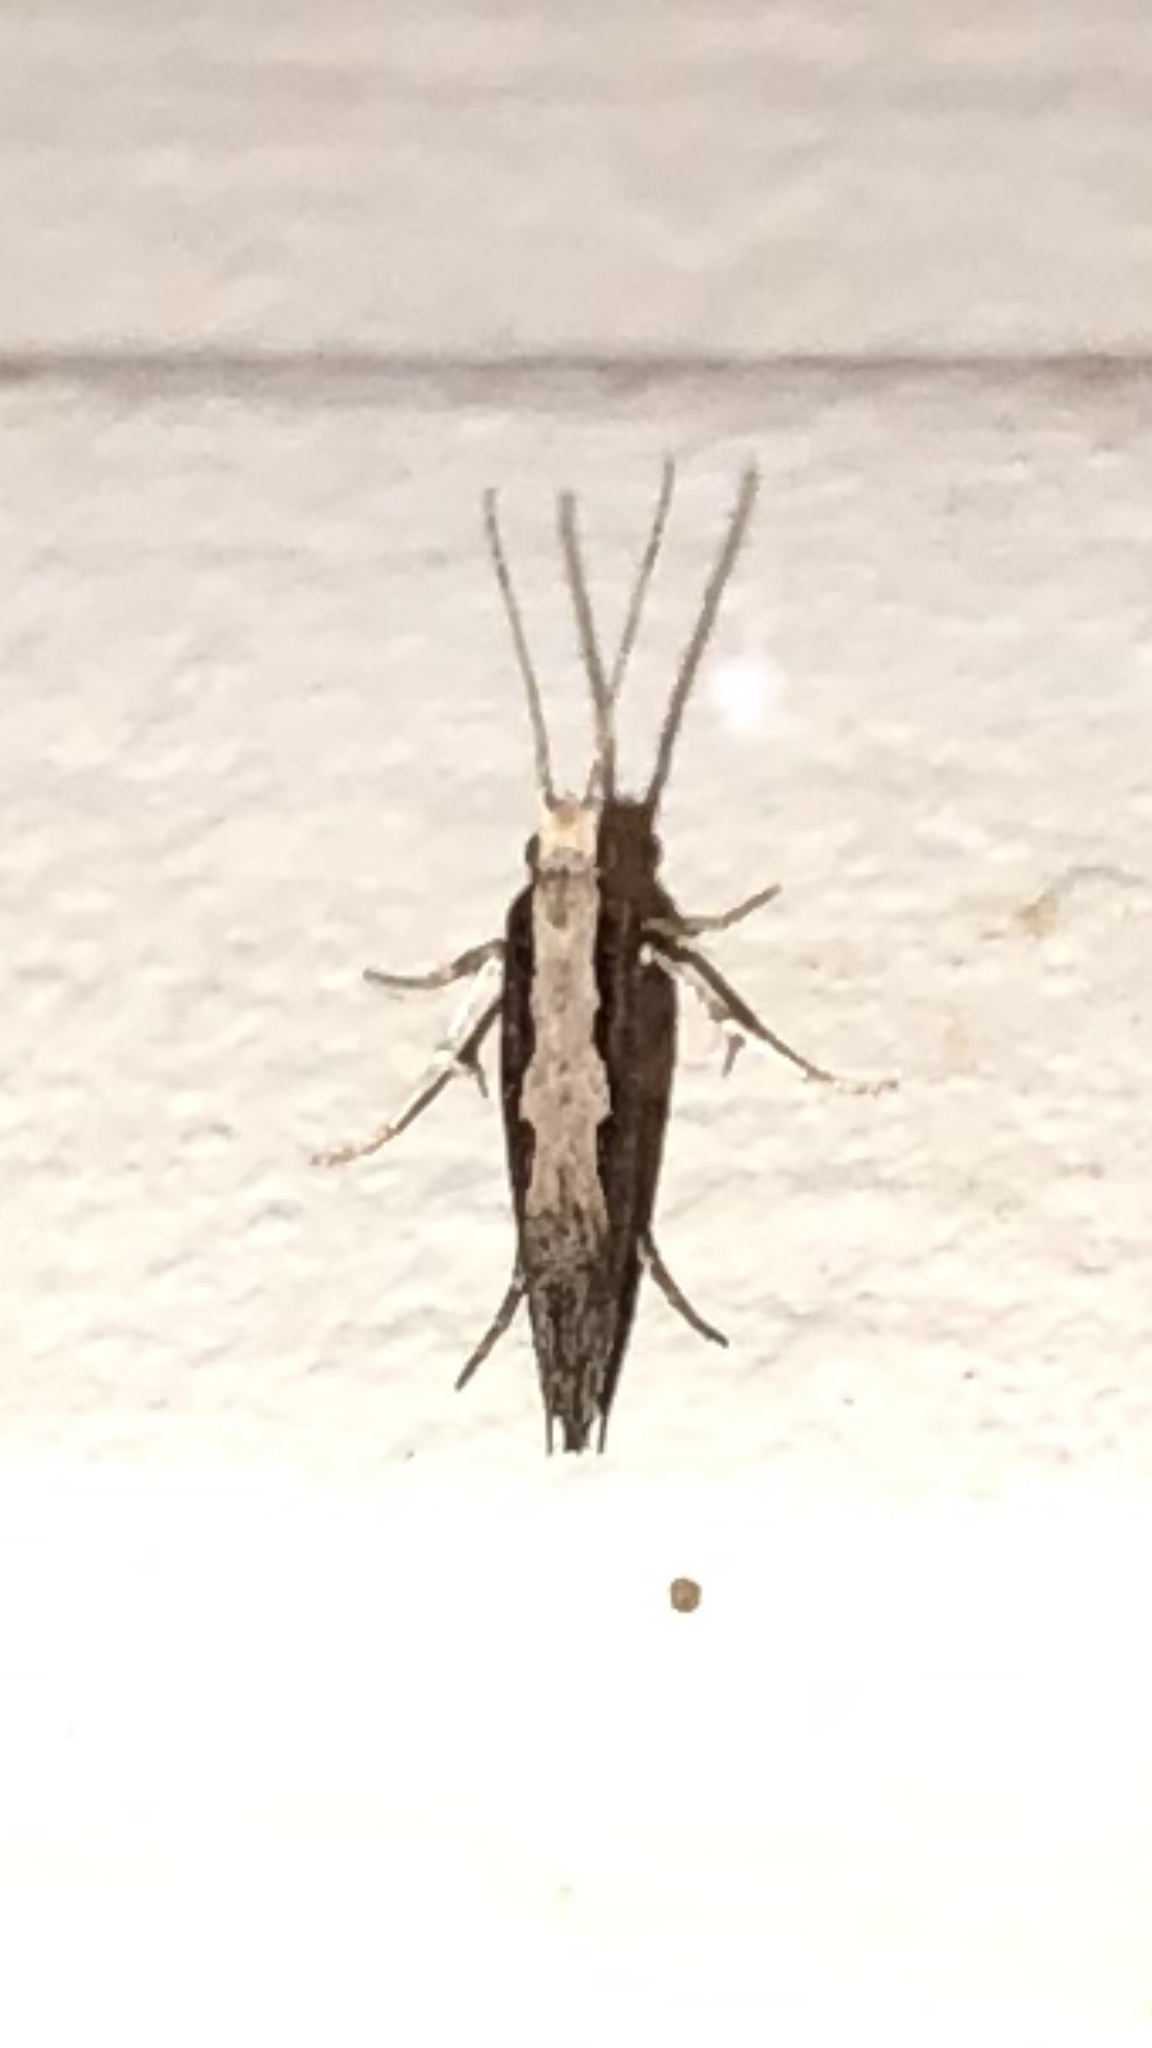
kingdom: Animalia
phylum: Arthropoda
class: Insecta
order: Lepidoptera
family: Plutellidae
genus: Plutella
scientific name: Plutella xylostella
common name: Diamond-back moth
